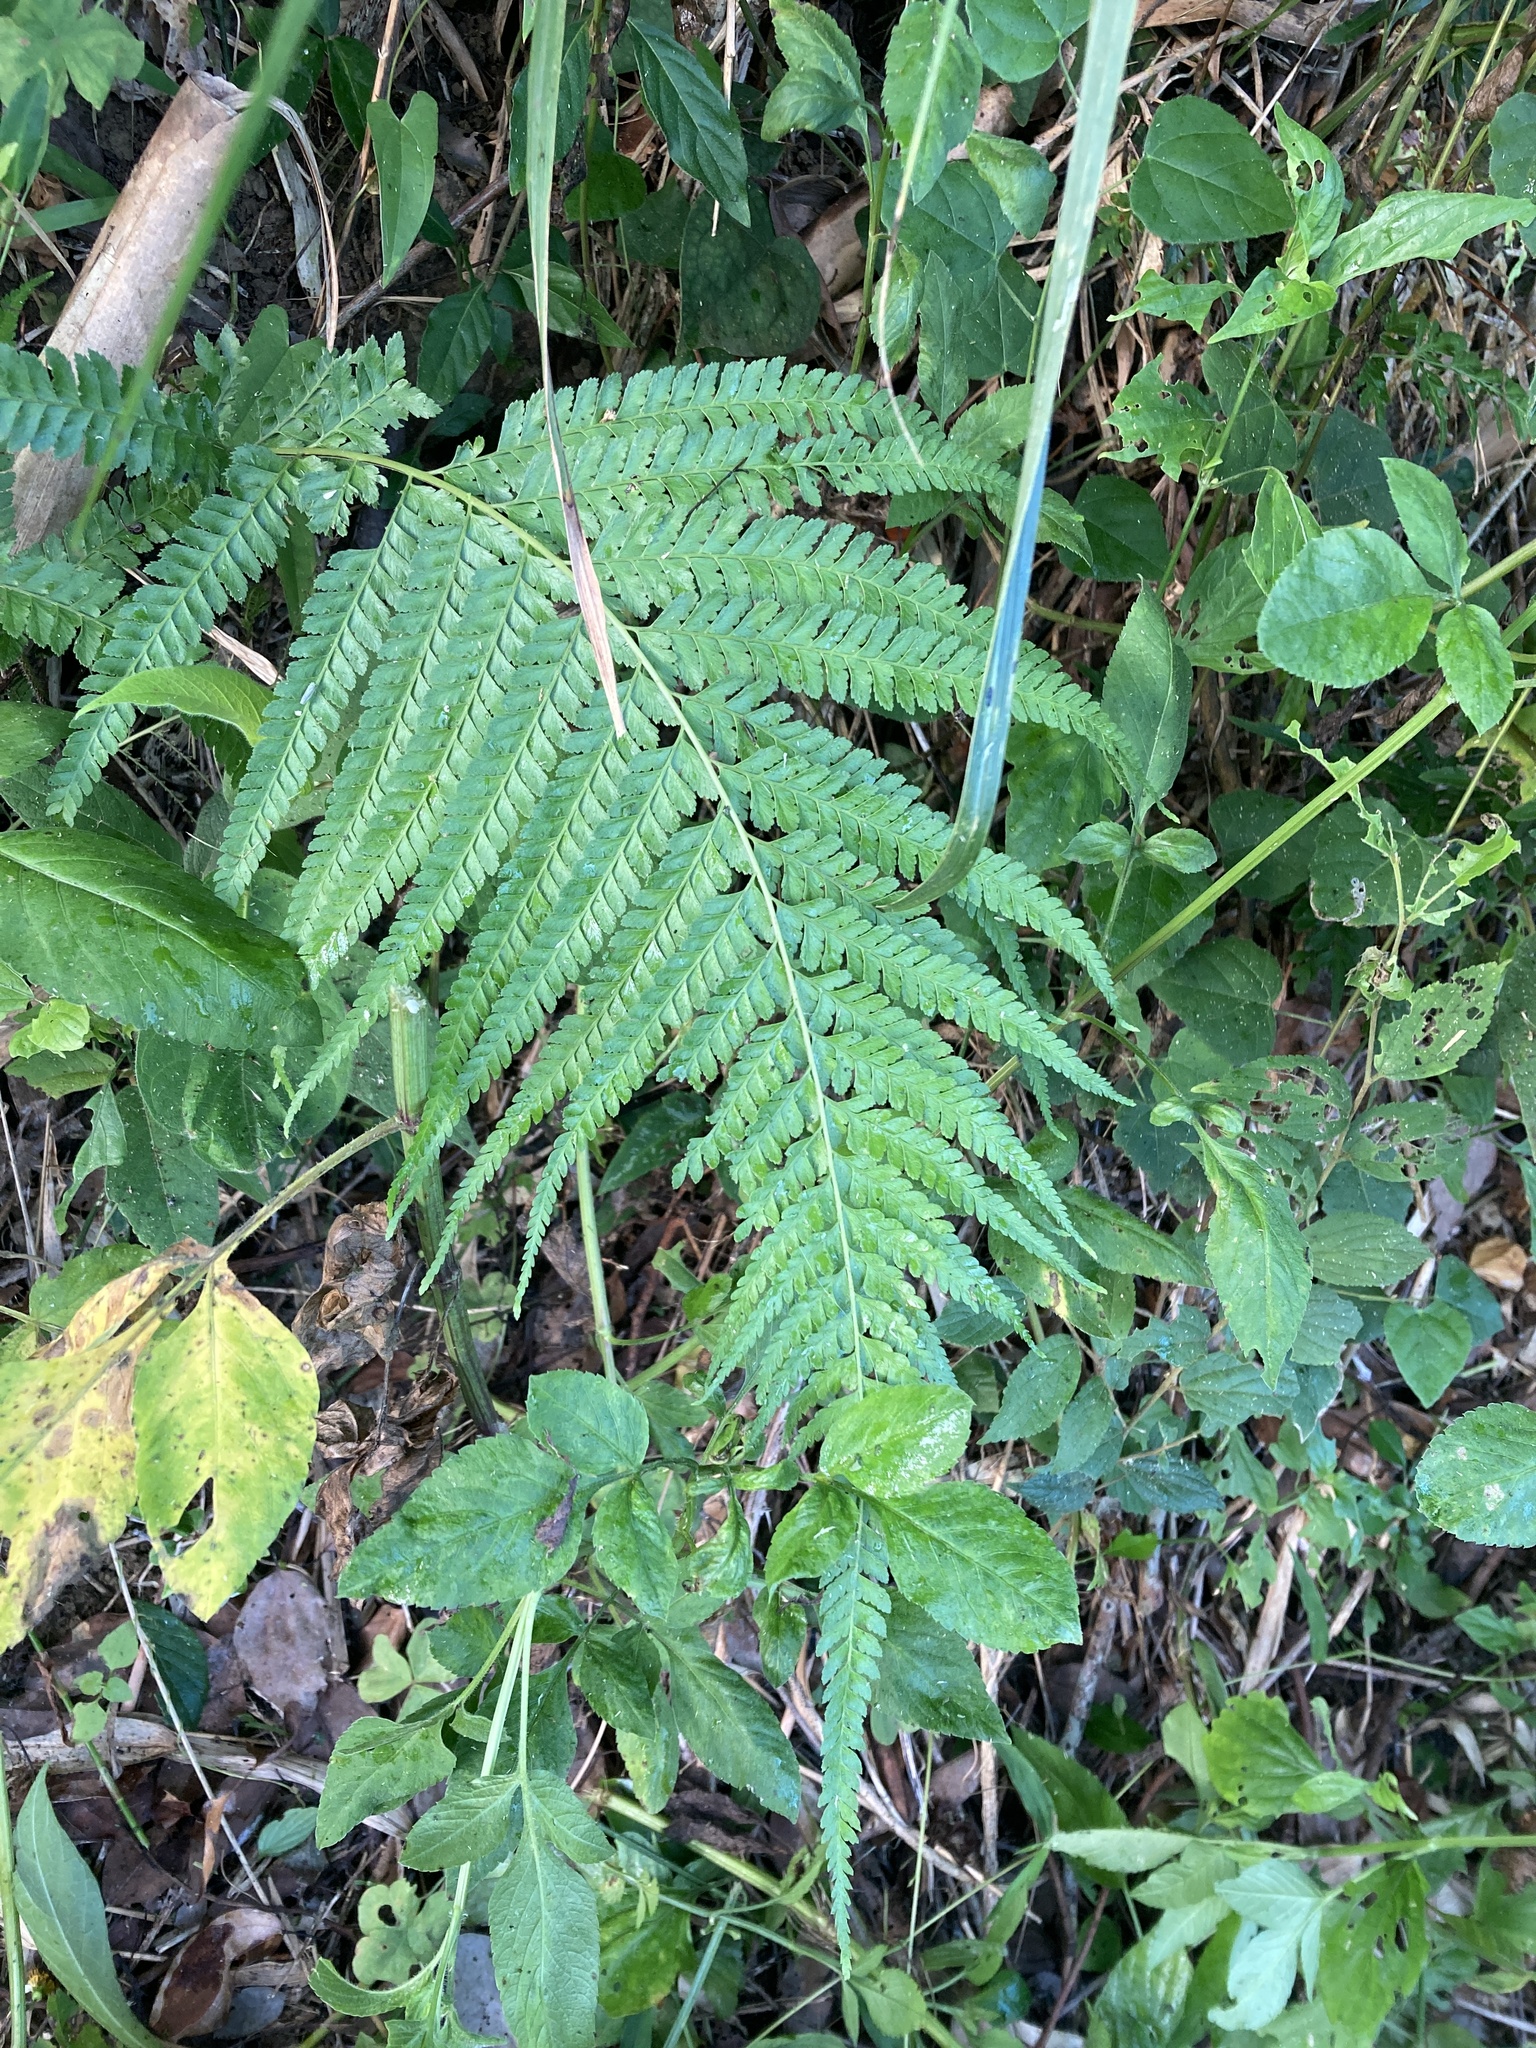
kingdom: Plantae
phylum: Tracheophyta
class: Polypodiopsida
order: Polypodiales
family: Dennstaedtiaceae
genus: Microlepia
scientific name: Microlepia strigosa
